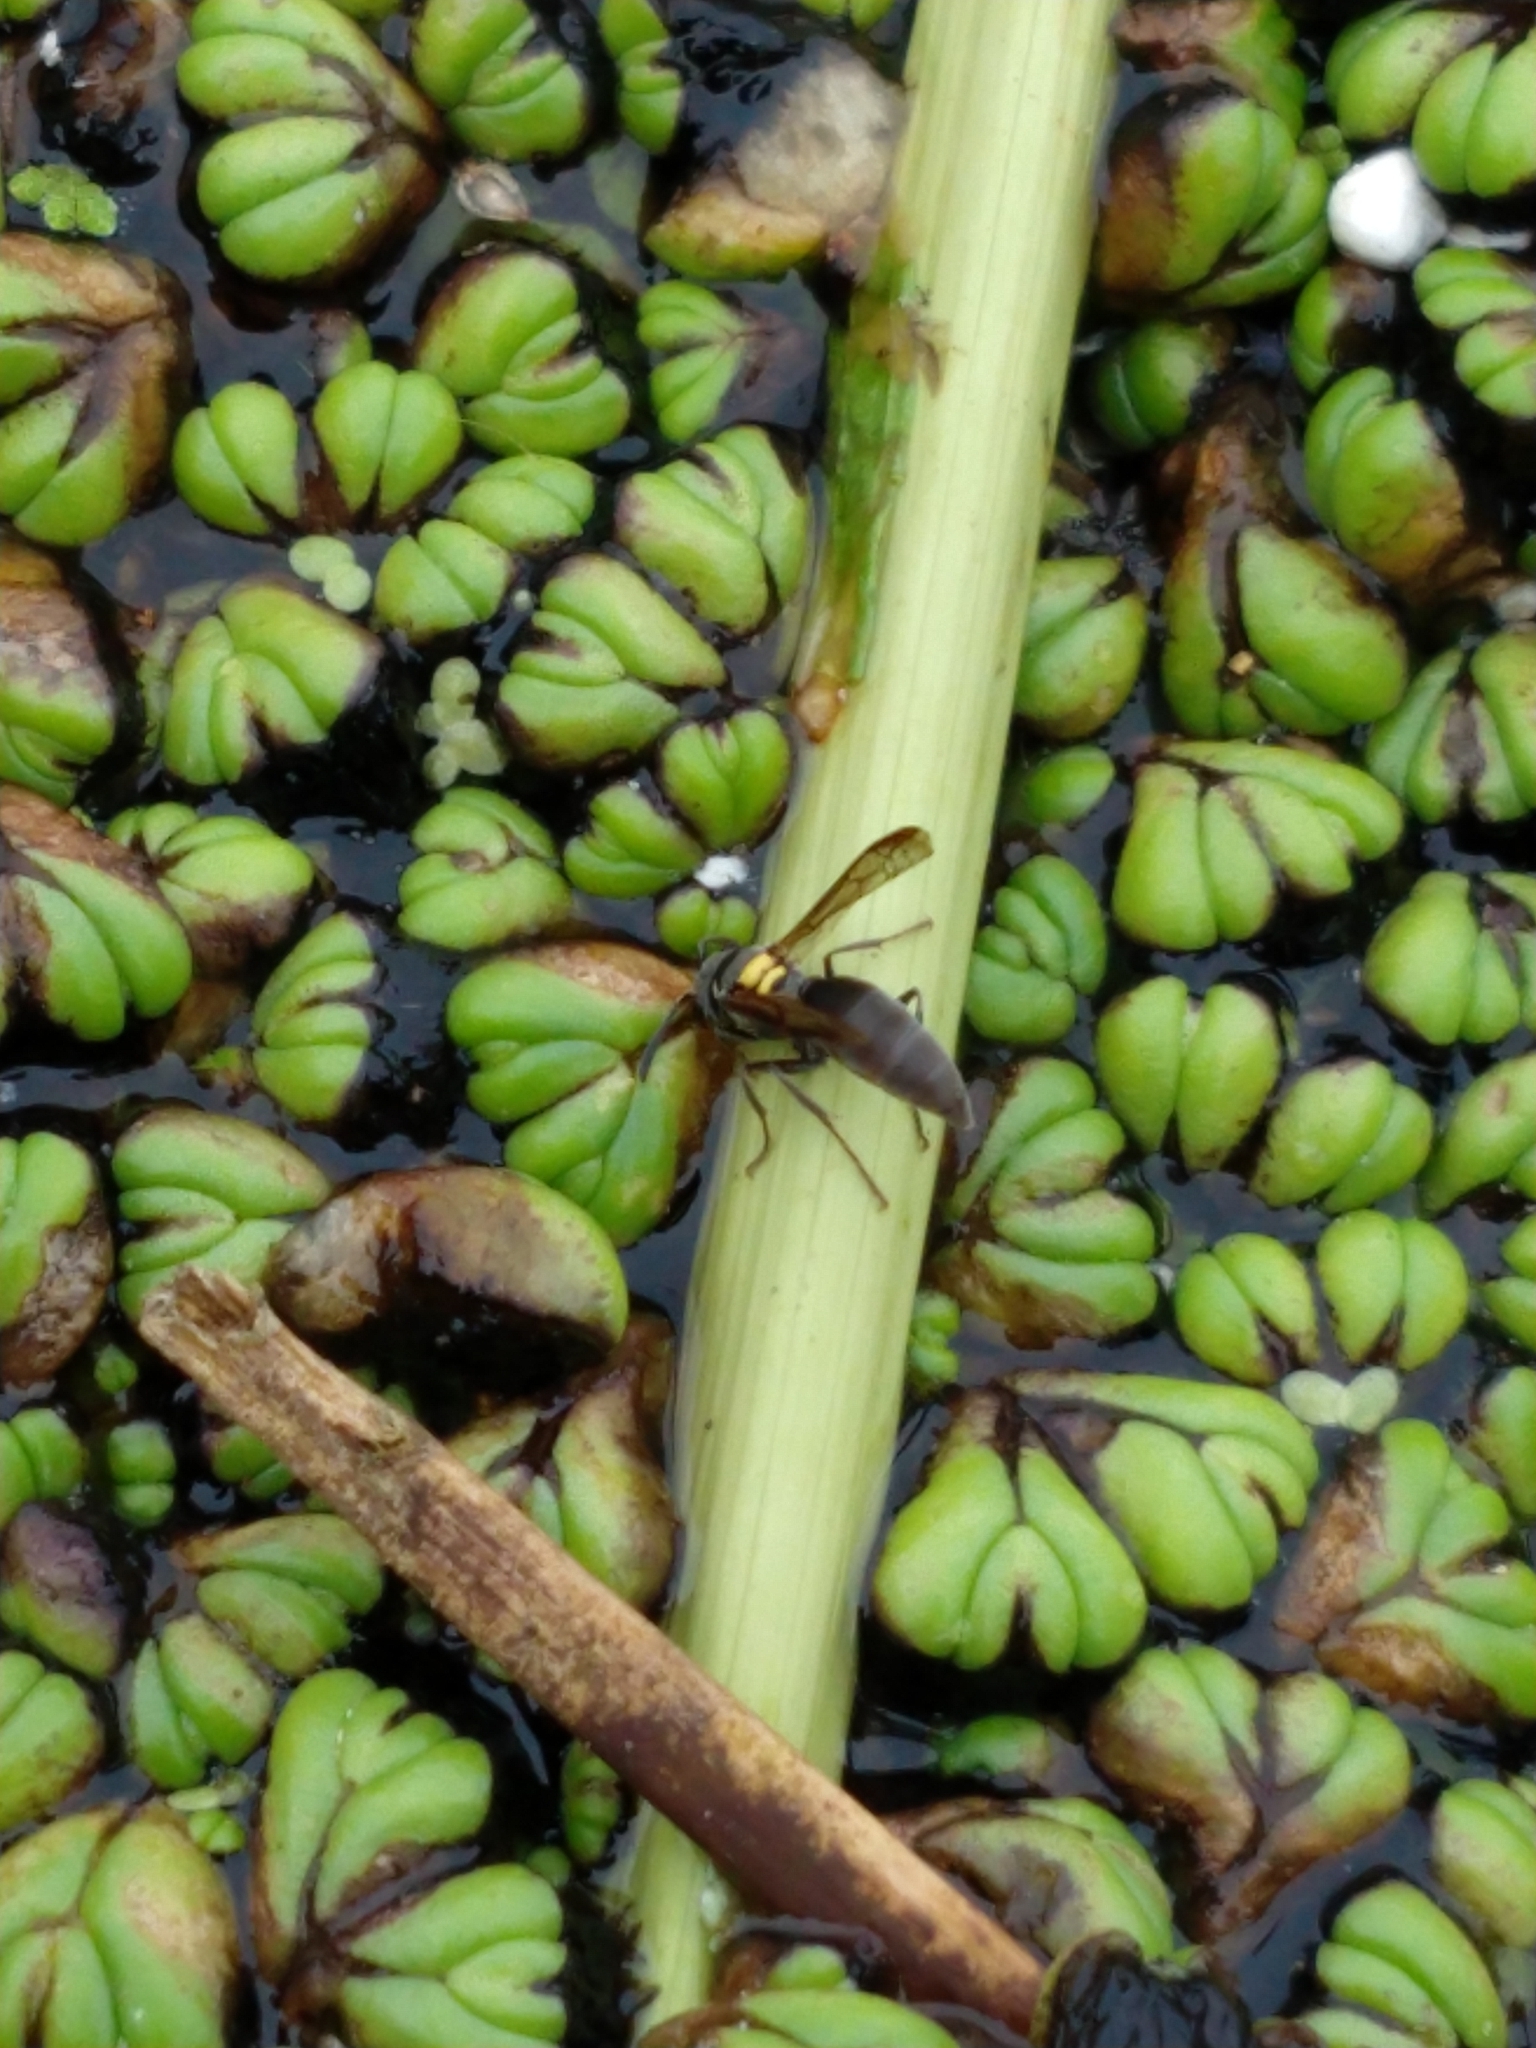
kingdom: Animalia
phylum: Arthropoda
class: Insecta
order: Hymenoptera
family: Eumenidae
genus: Polybia
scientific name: Polybia scutellaris
